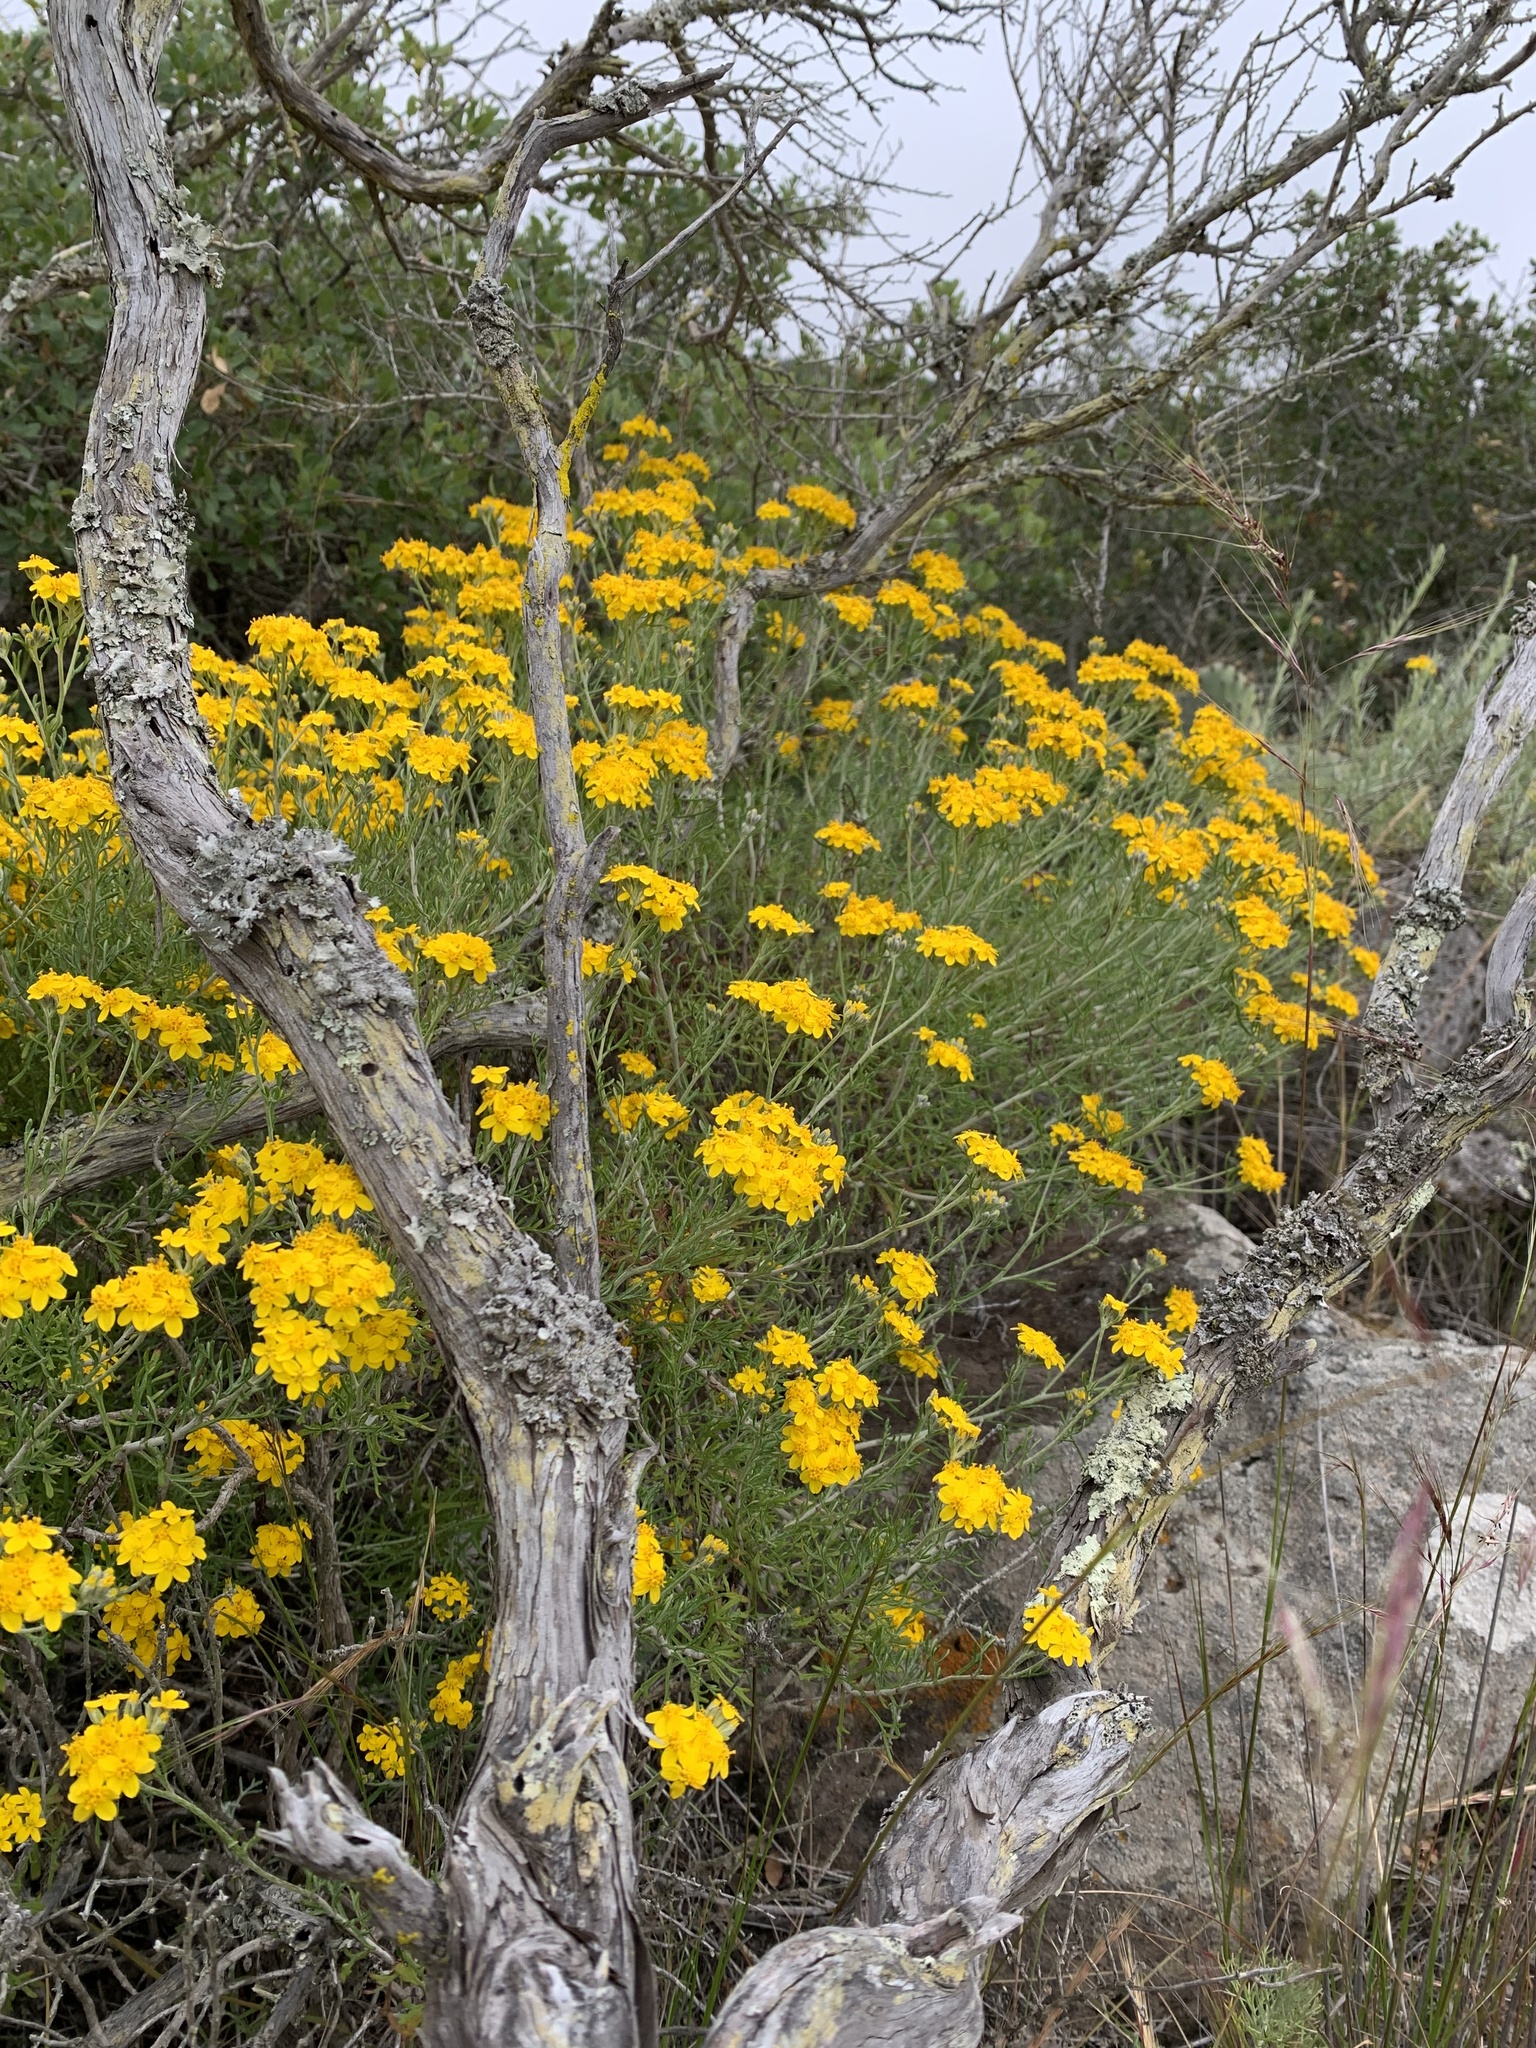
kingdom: Plantae
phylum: Tracheophyta
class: Magnoliopsida
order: Asterales
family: Asteraceae
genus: Eriophyllum
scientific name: Eriophyllum confertiflorum
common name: Golden-yarrow
